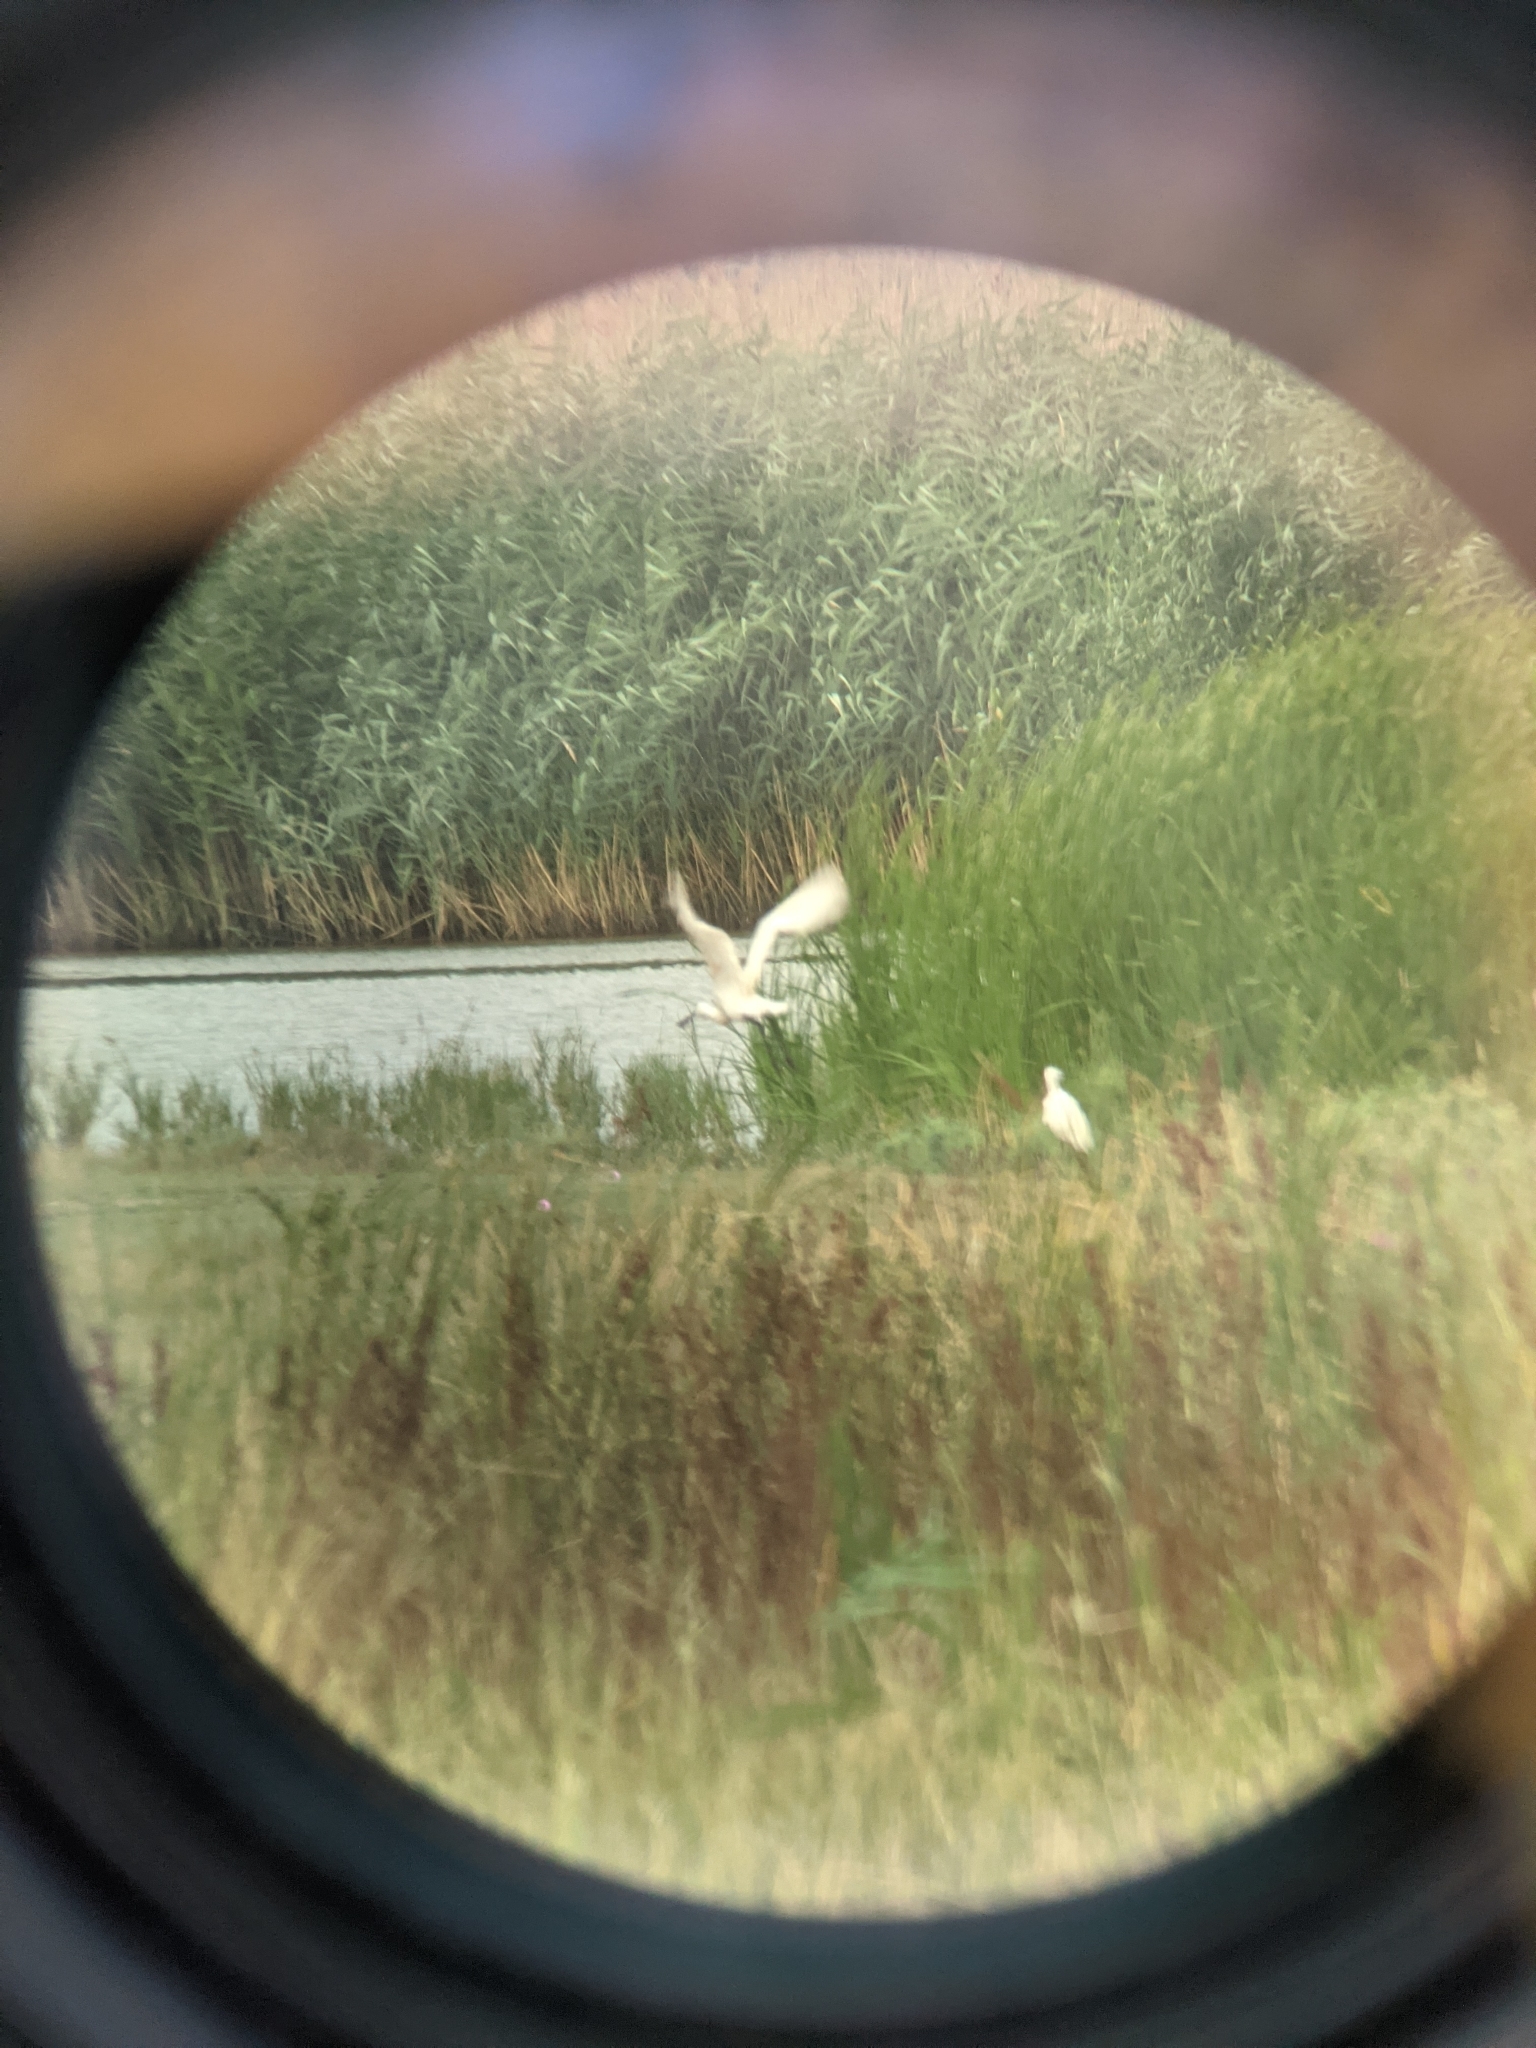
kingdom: Animalia
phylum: Chordata
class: Aves
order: Pelecaniformes
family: Threskiornithidae
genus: Platalea
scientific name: Platalea leucorodia
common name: Eurasian spoonbill
